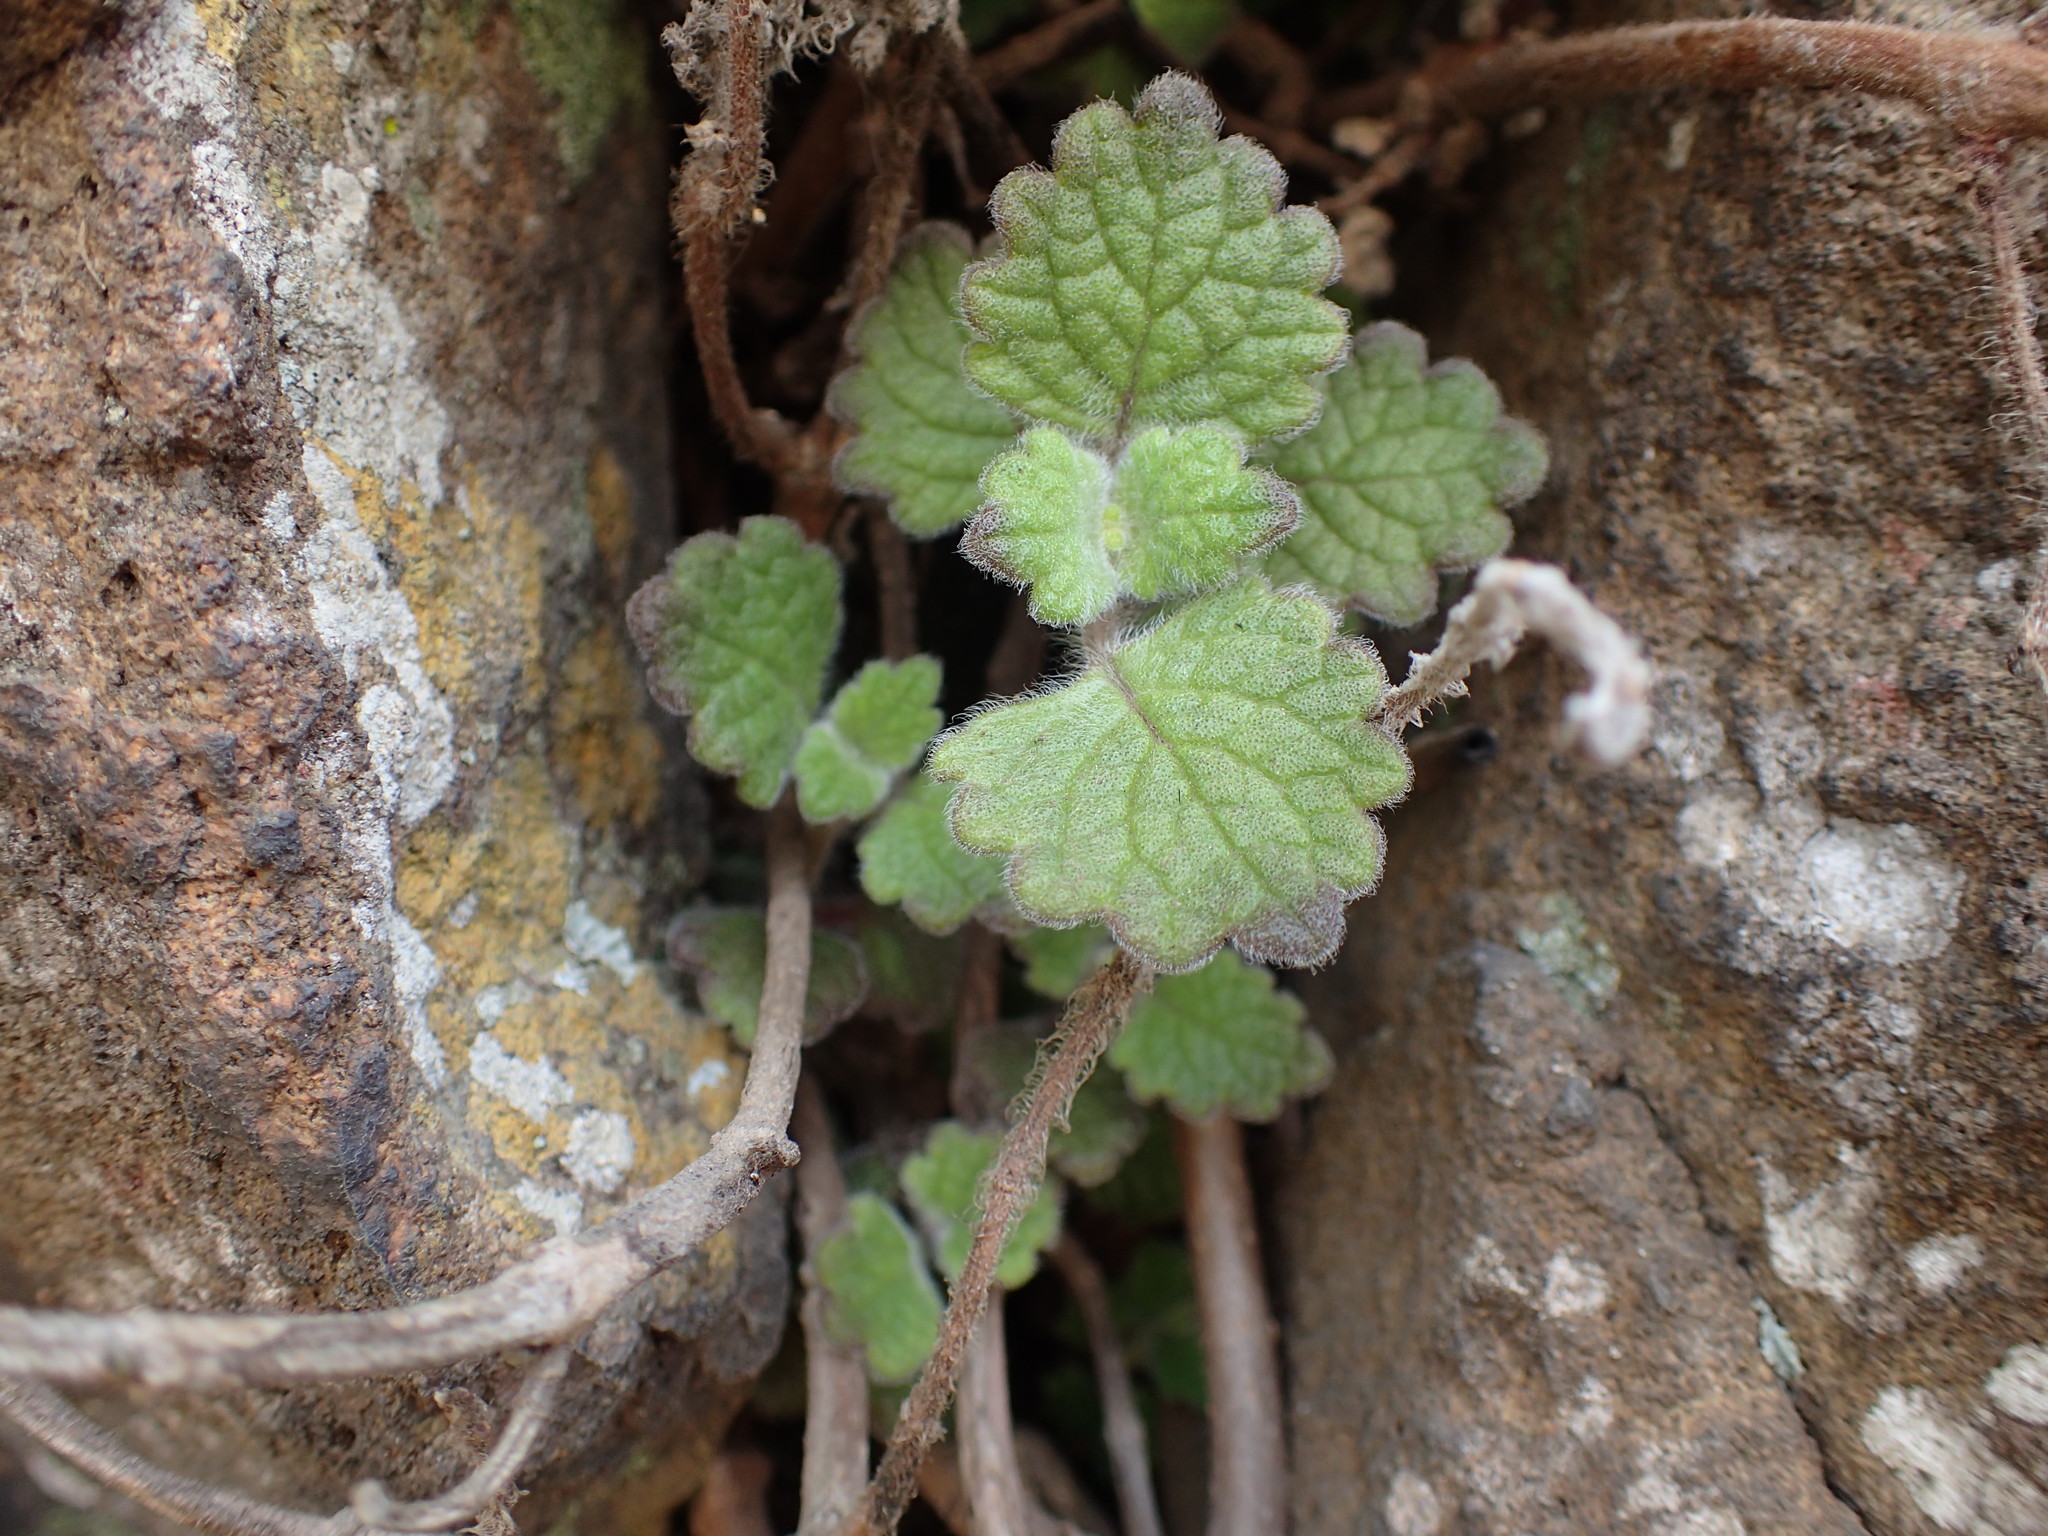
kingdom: Plantae
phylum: Tracheophyta
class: Magnoliopsida
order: Lamiales
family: Lamiaceae
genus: Coleus
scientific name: Coleus hadiensis
